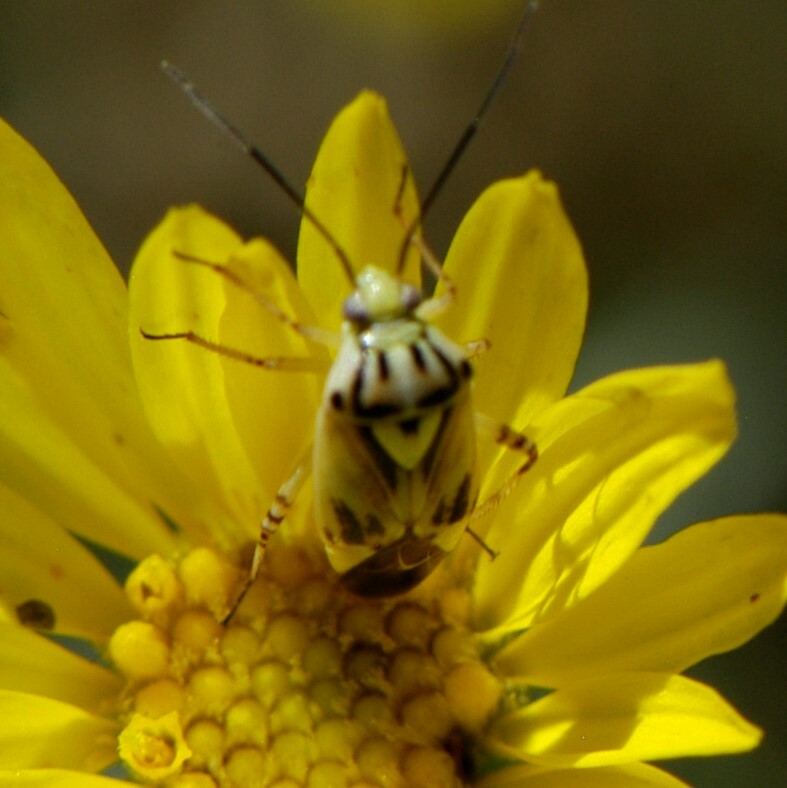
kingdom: Animalia
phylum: Arthropoda
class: Insecta
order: Hemiptera
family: Miridae
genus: Lygus
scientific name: Lygus atriflavus
